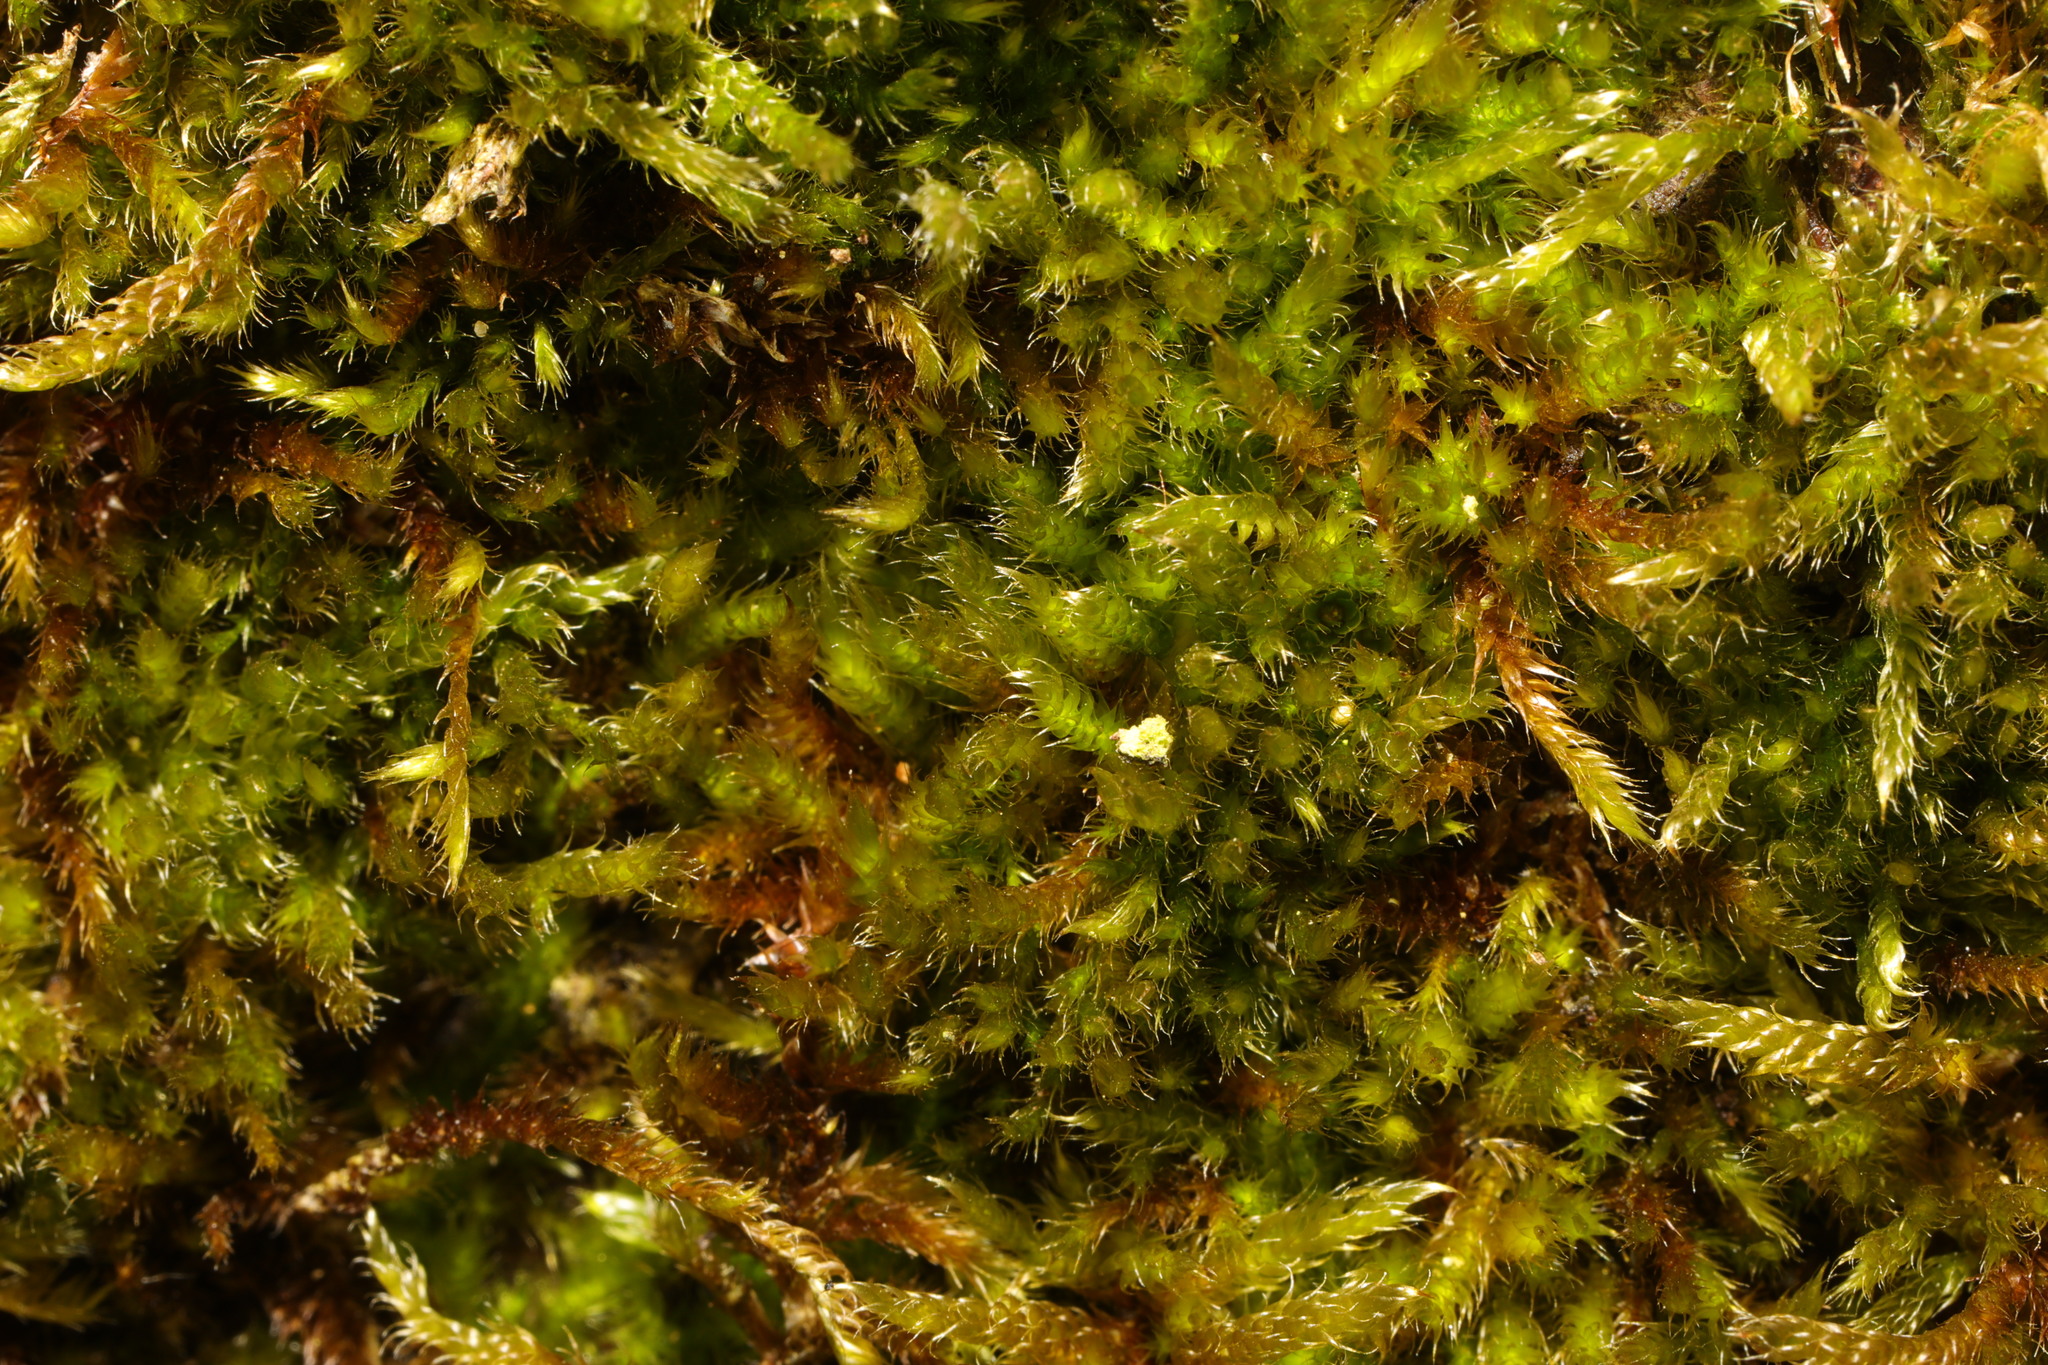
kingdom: Plantae
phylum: Bryophyta
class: Bryopsida
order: Hypnales
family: Hypnaceae
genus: Hypnum
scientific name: Hypnum cupressiforme
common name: Cypress-leaved plait-moss
